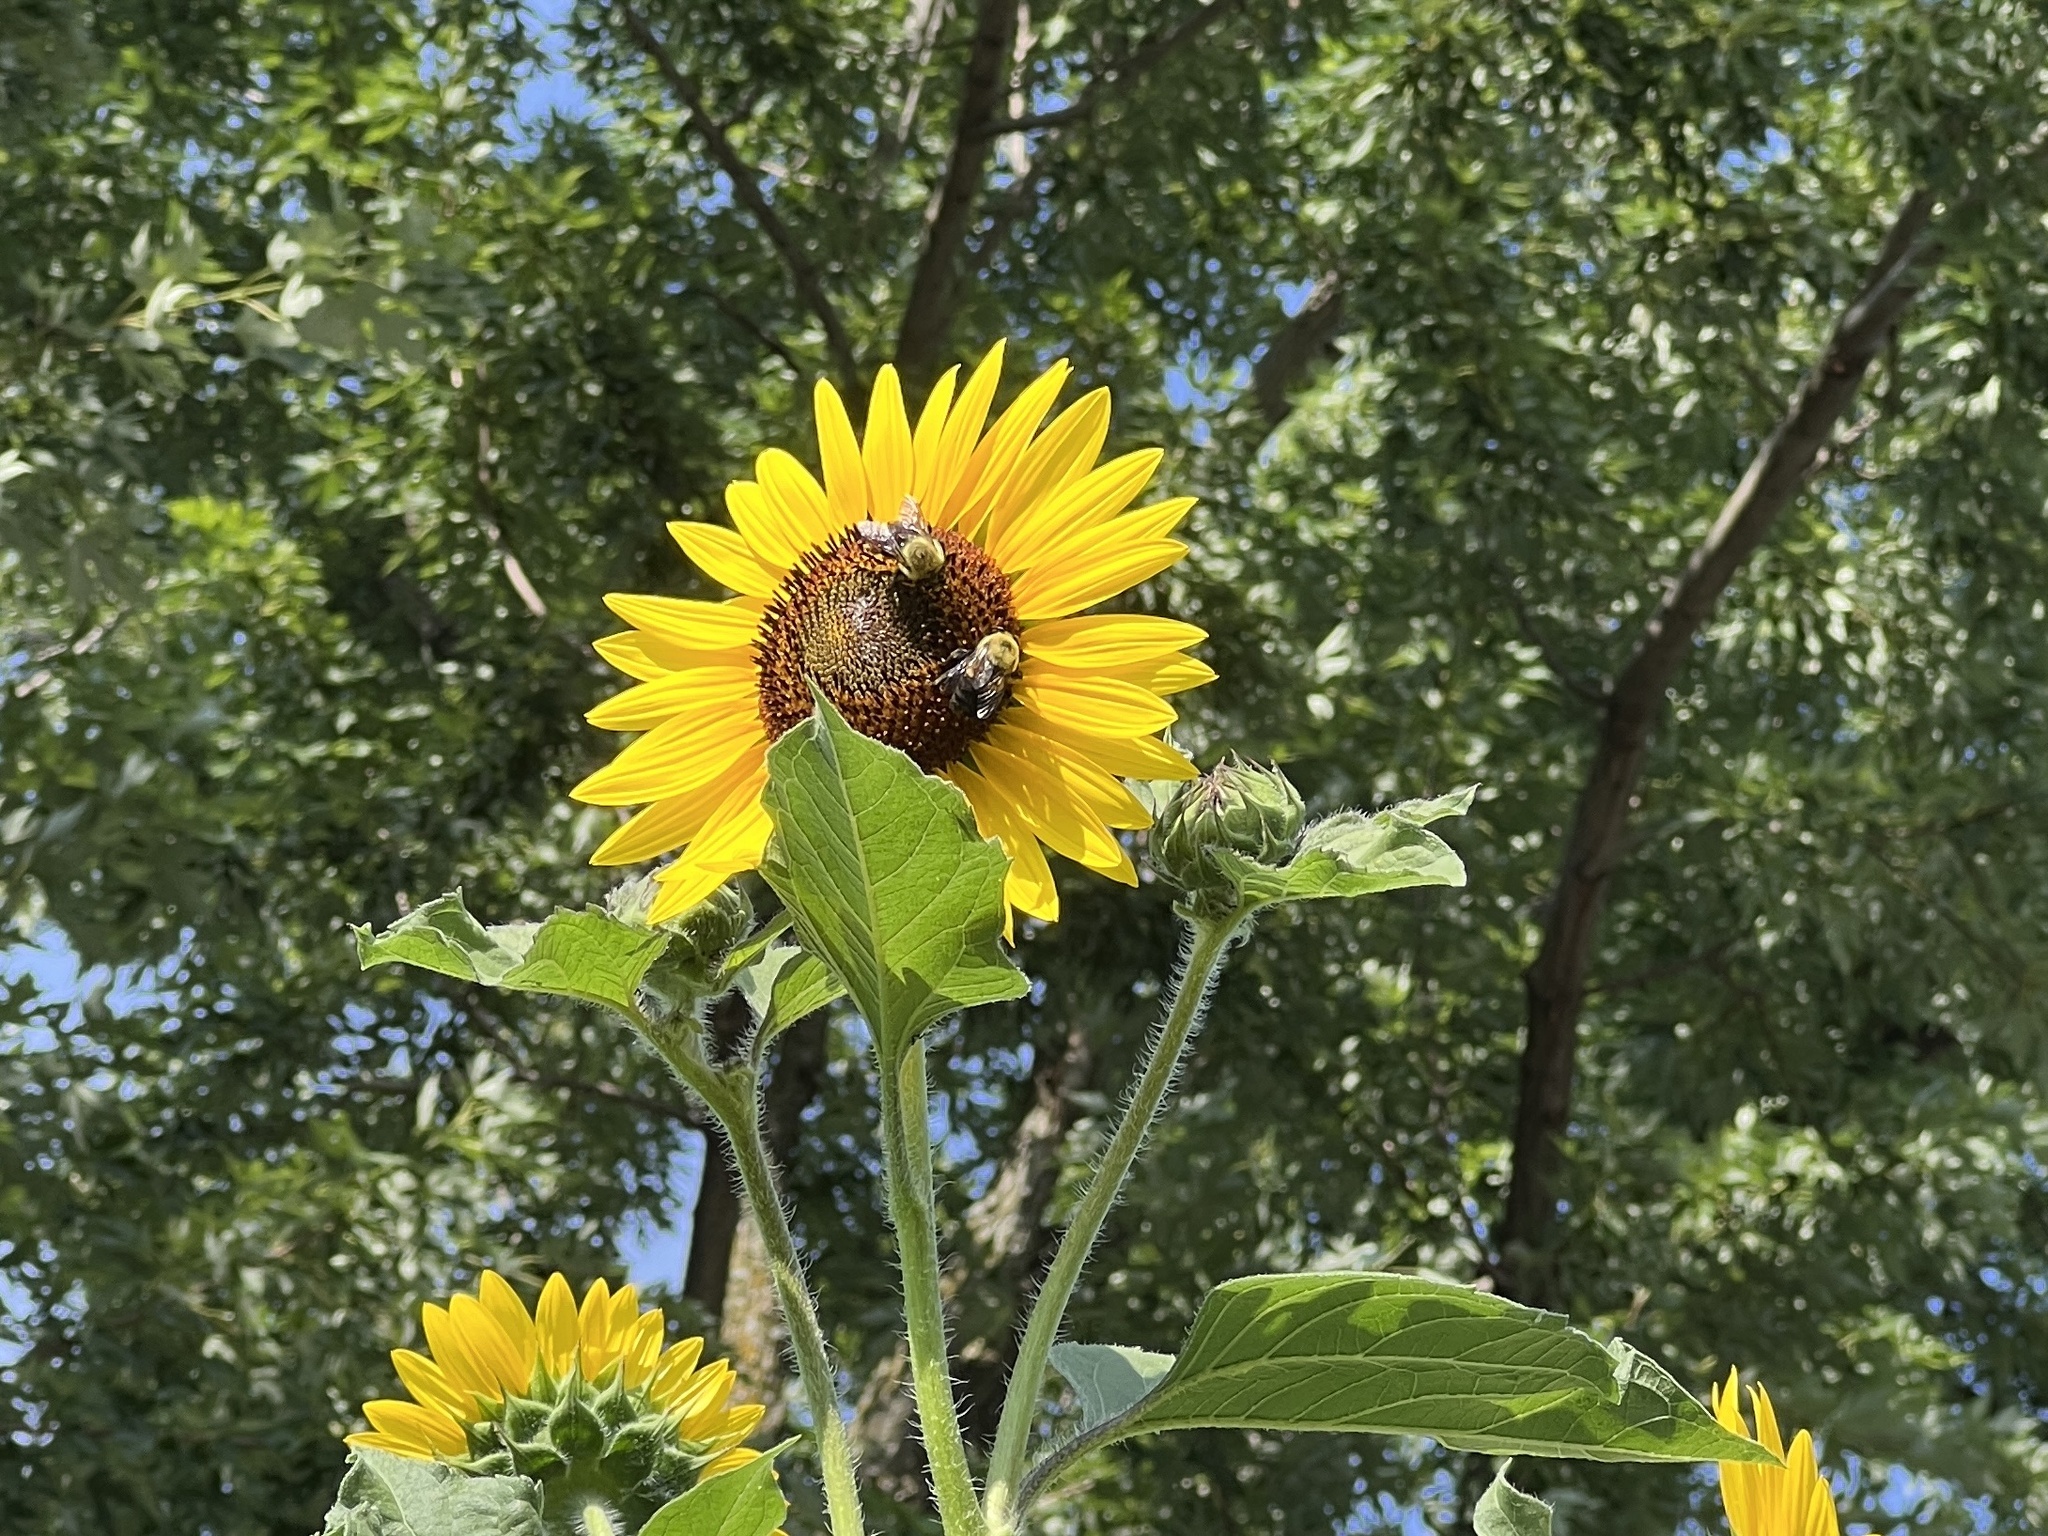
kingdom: Animalia
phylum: Arthropoda
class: Insecta
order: Hymenoptera
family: Apidae
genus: Bombus
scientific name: Bombus griseocollis
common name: Brown-belted bumble bee
